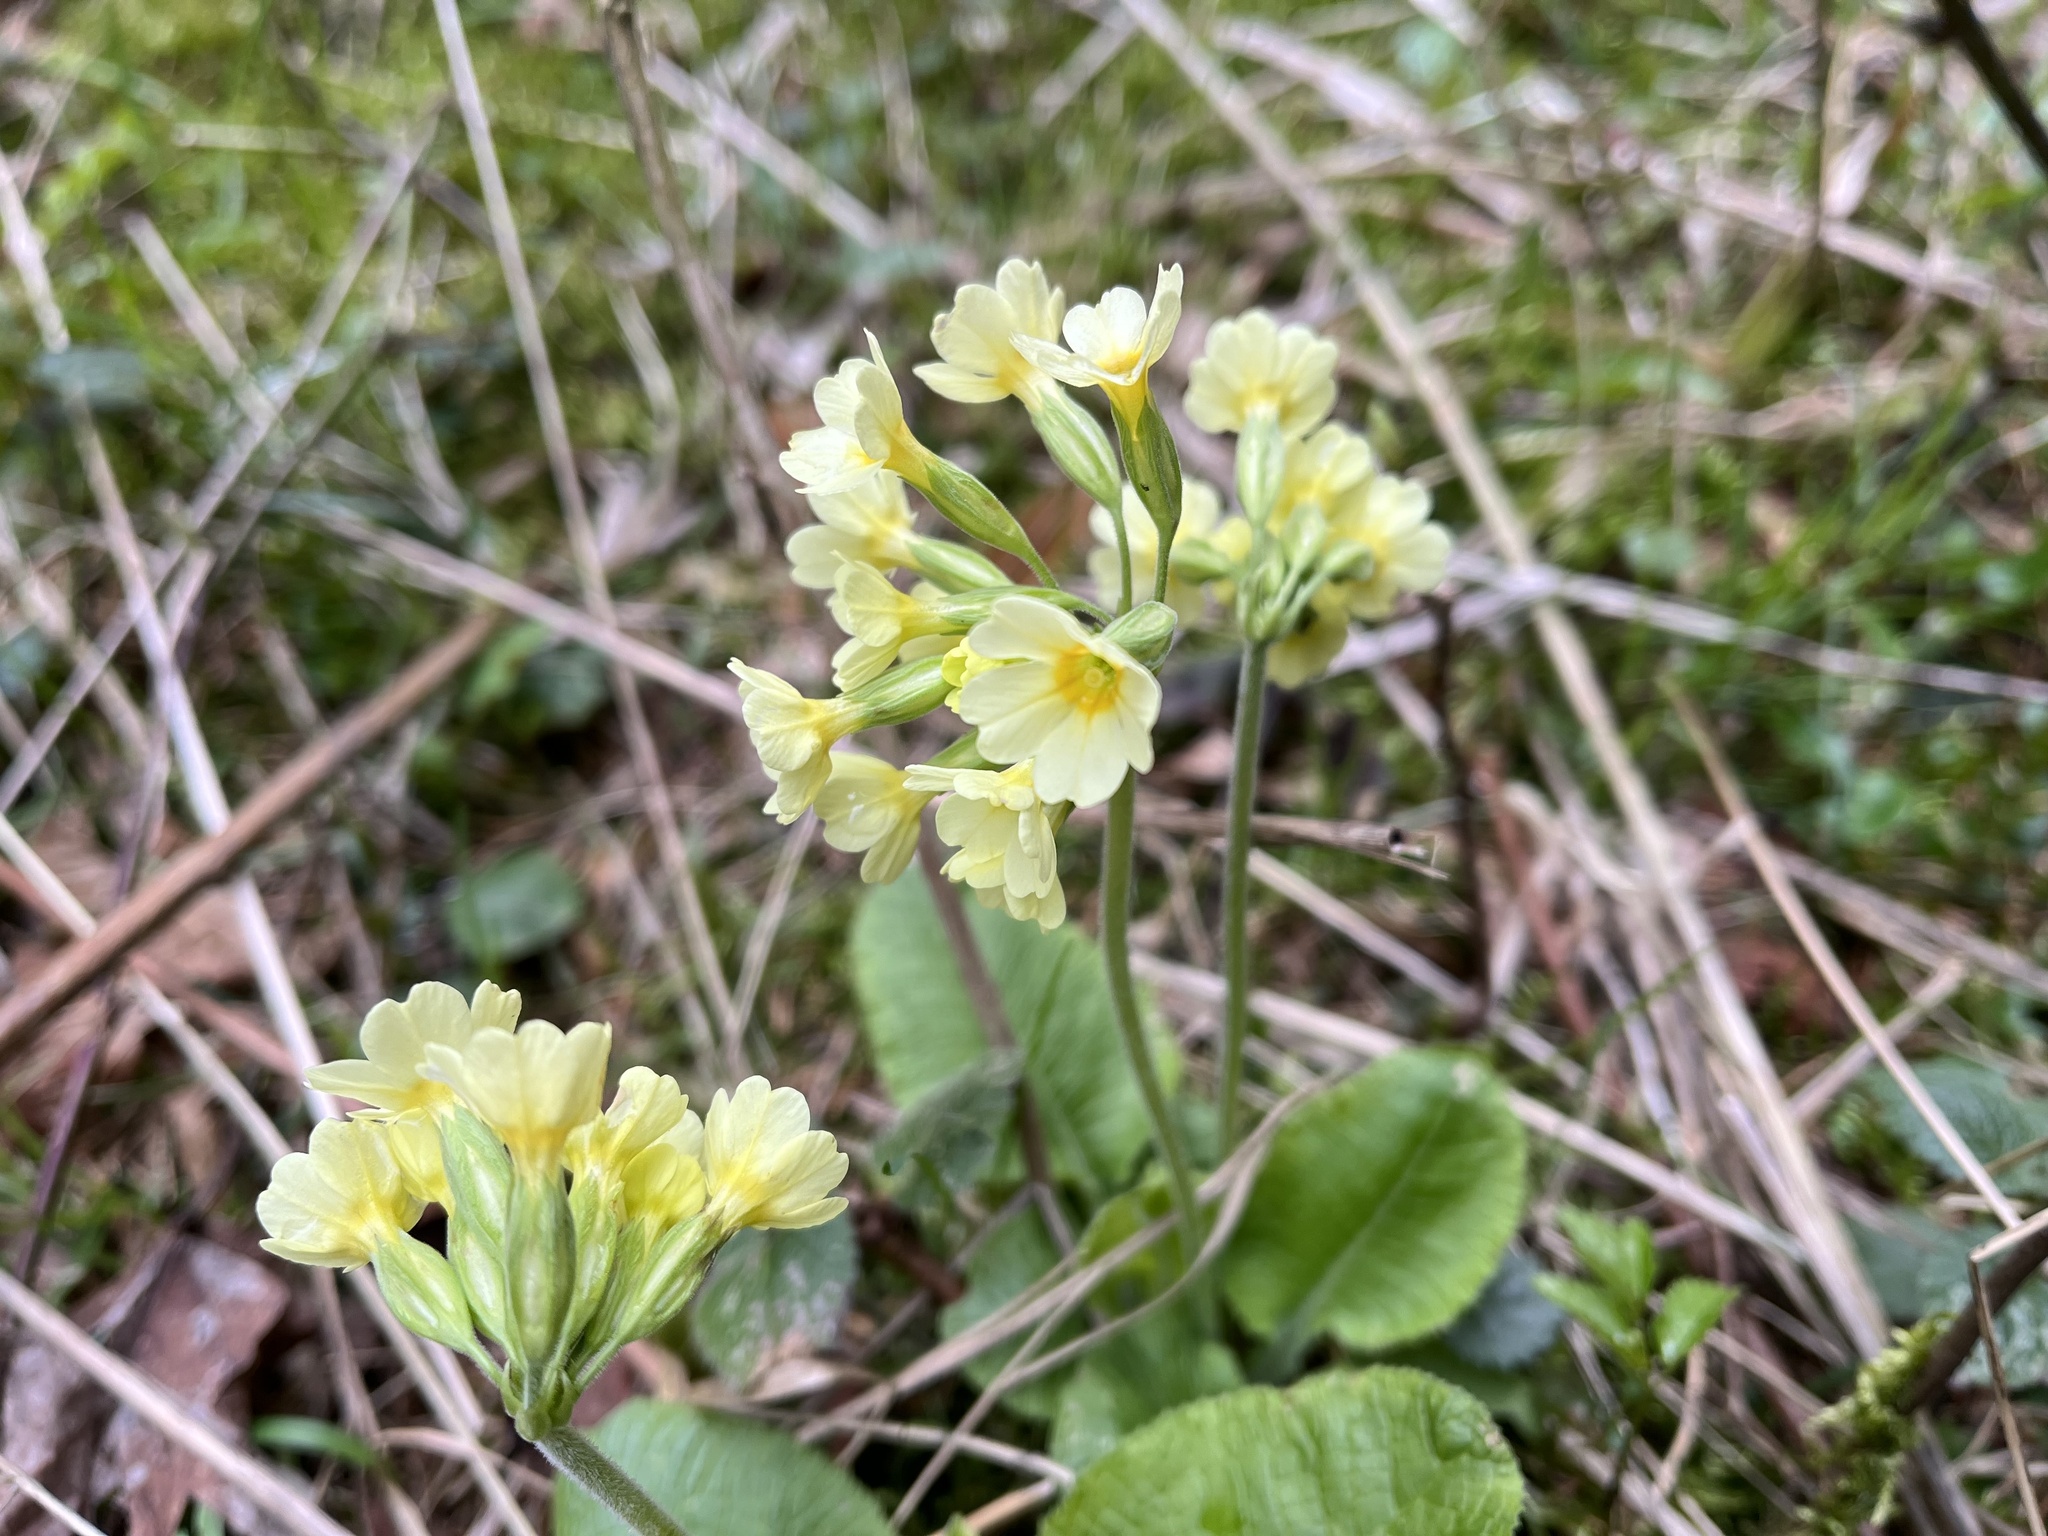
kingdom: Plantae
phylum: Tracheophyta
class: Magnoliopsida
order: Ericales
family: Primulaceae
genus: Primula
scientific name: Primula elatior
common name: Oxlip
